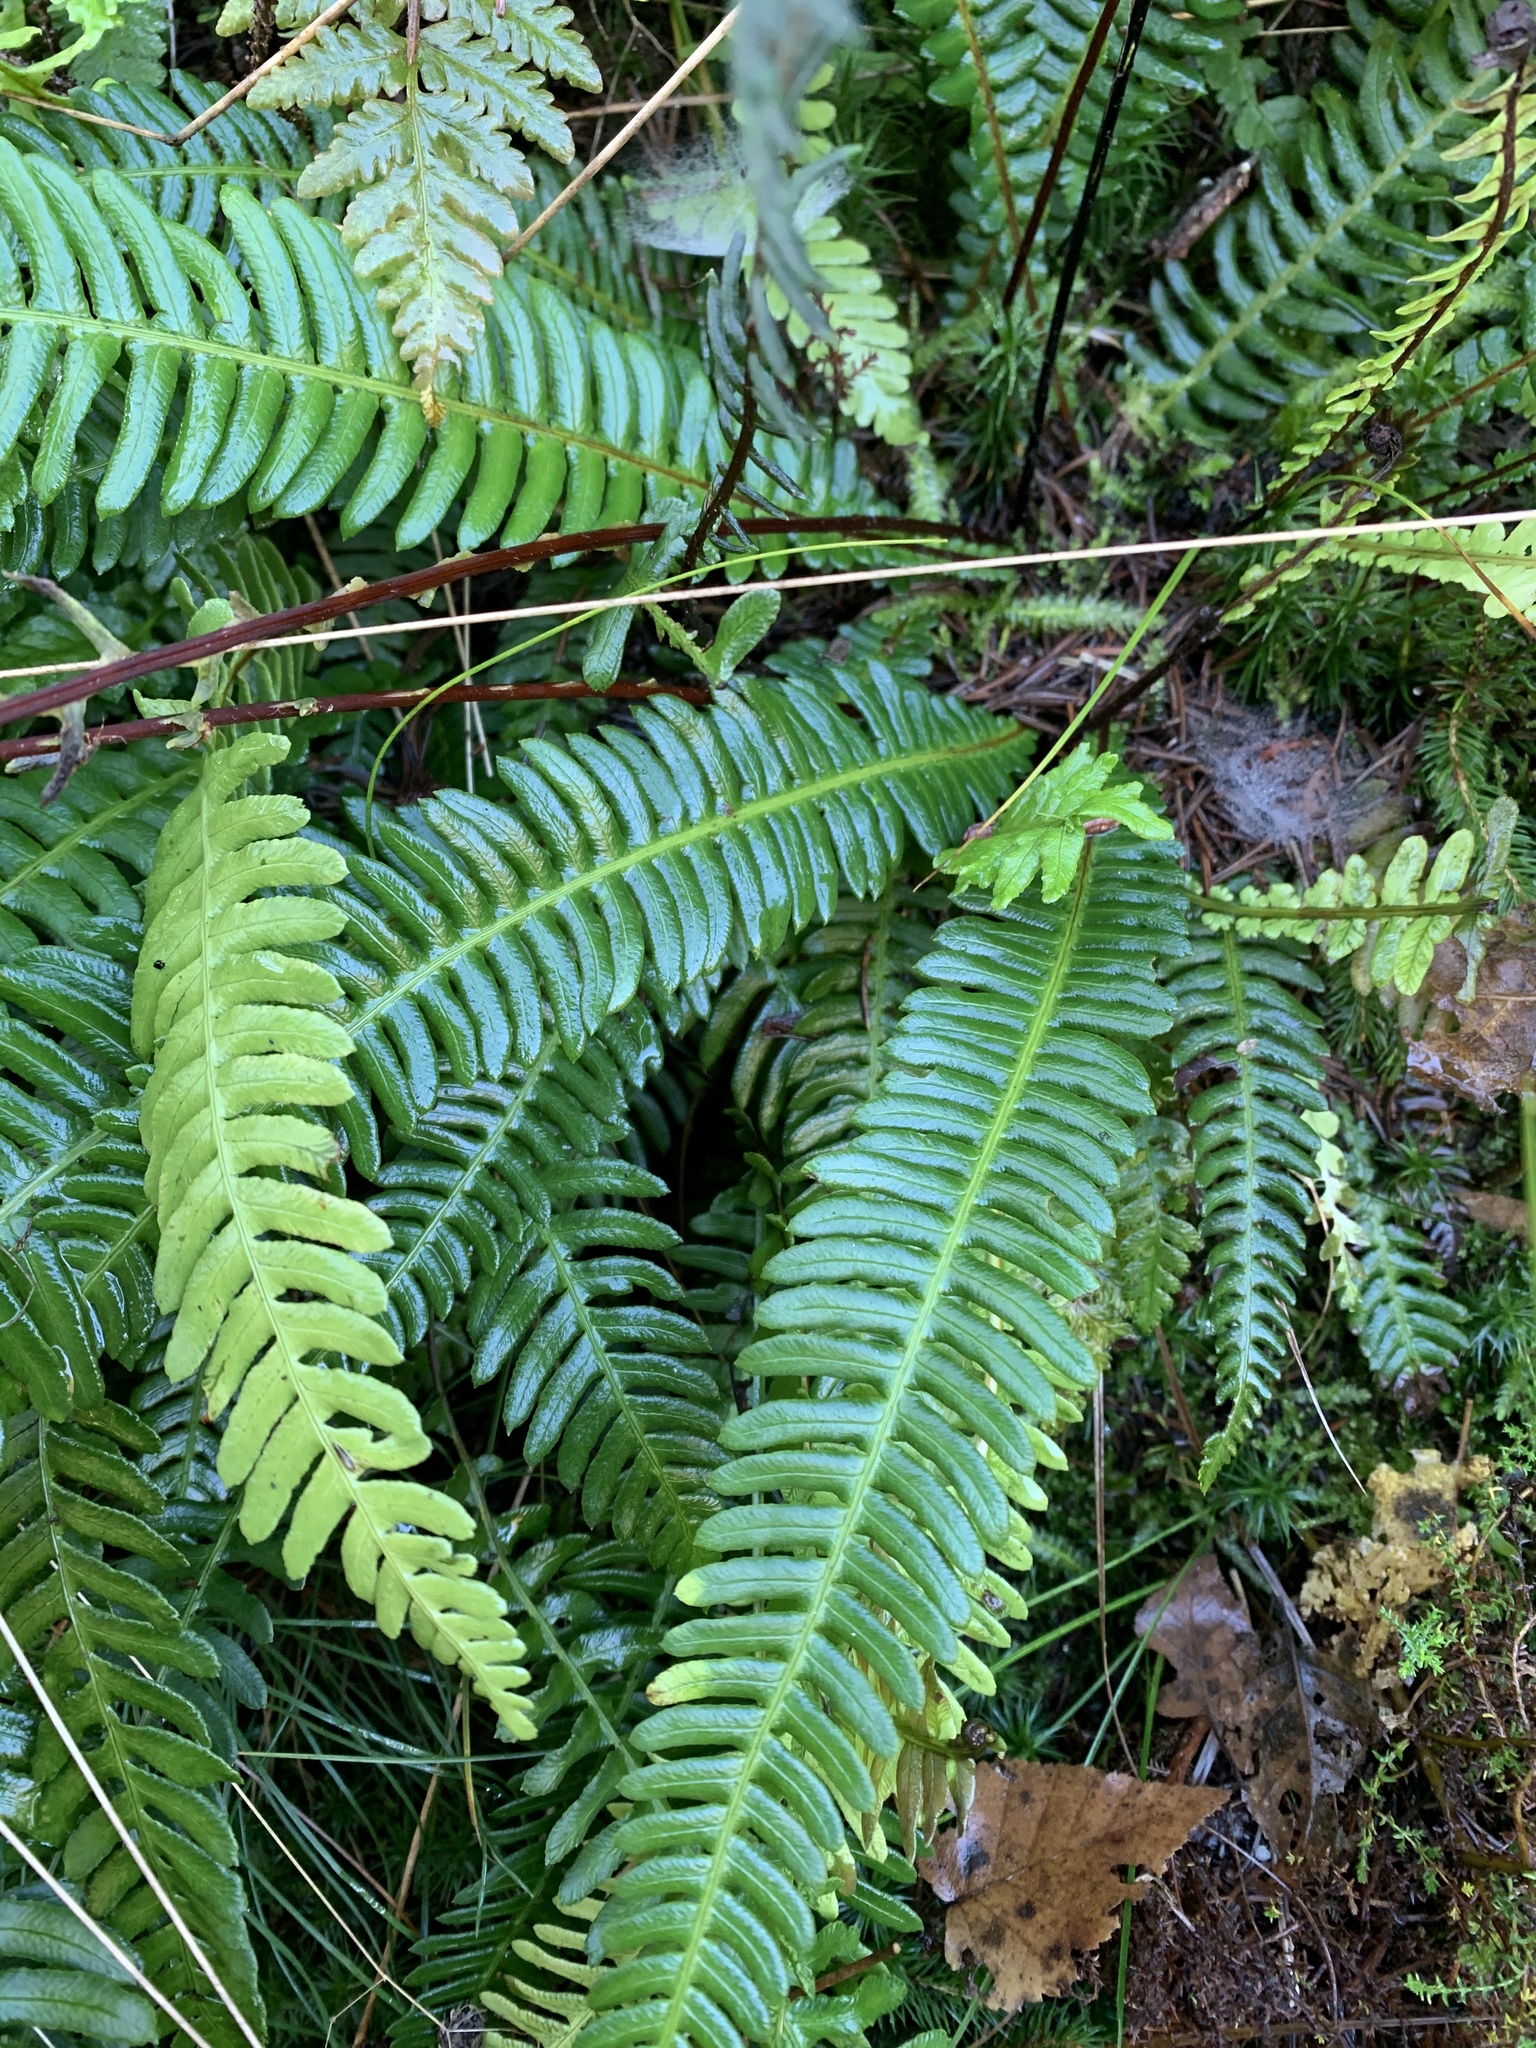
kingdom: Plantae
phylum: Tracheophyta
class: Polypodiopsida
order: Polypodiales
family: Blechnaceae
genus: Struthiopteris
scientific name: Struthiopteris spicant
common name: Deer fern
